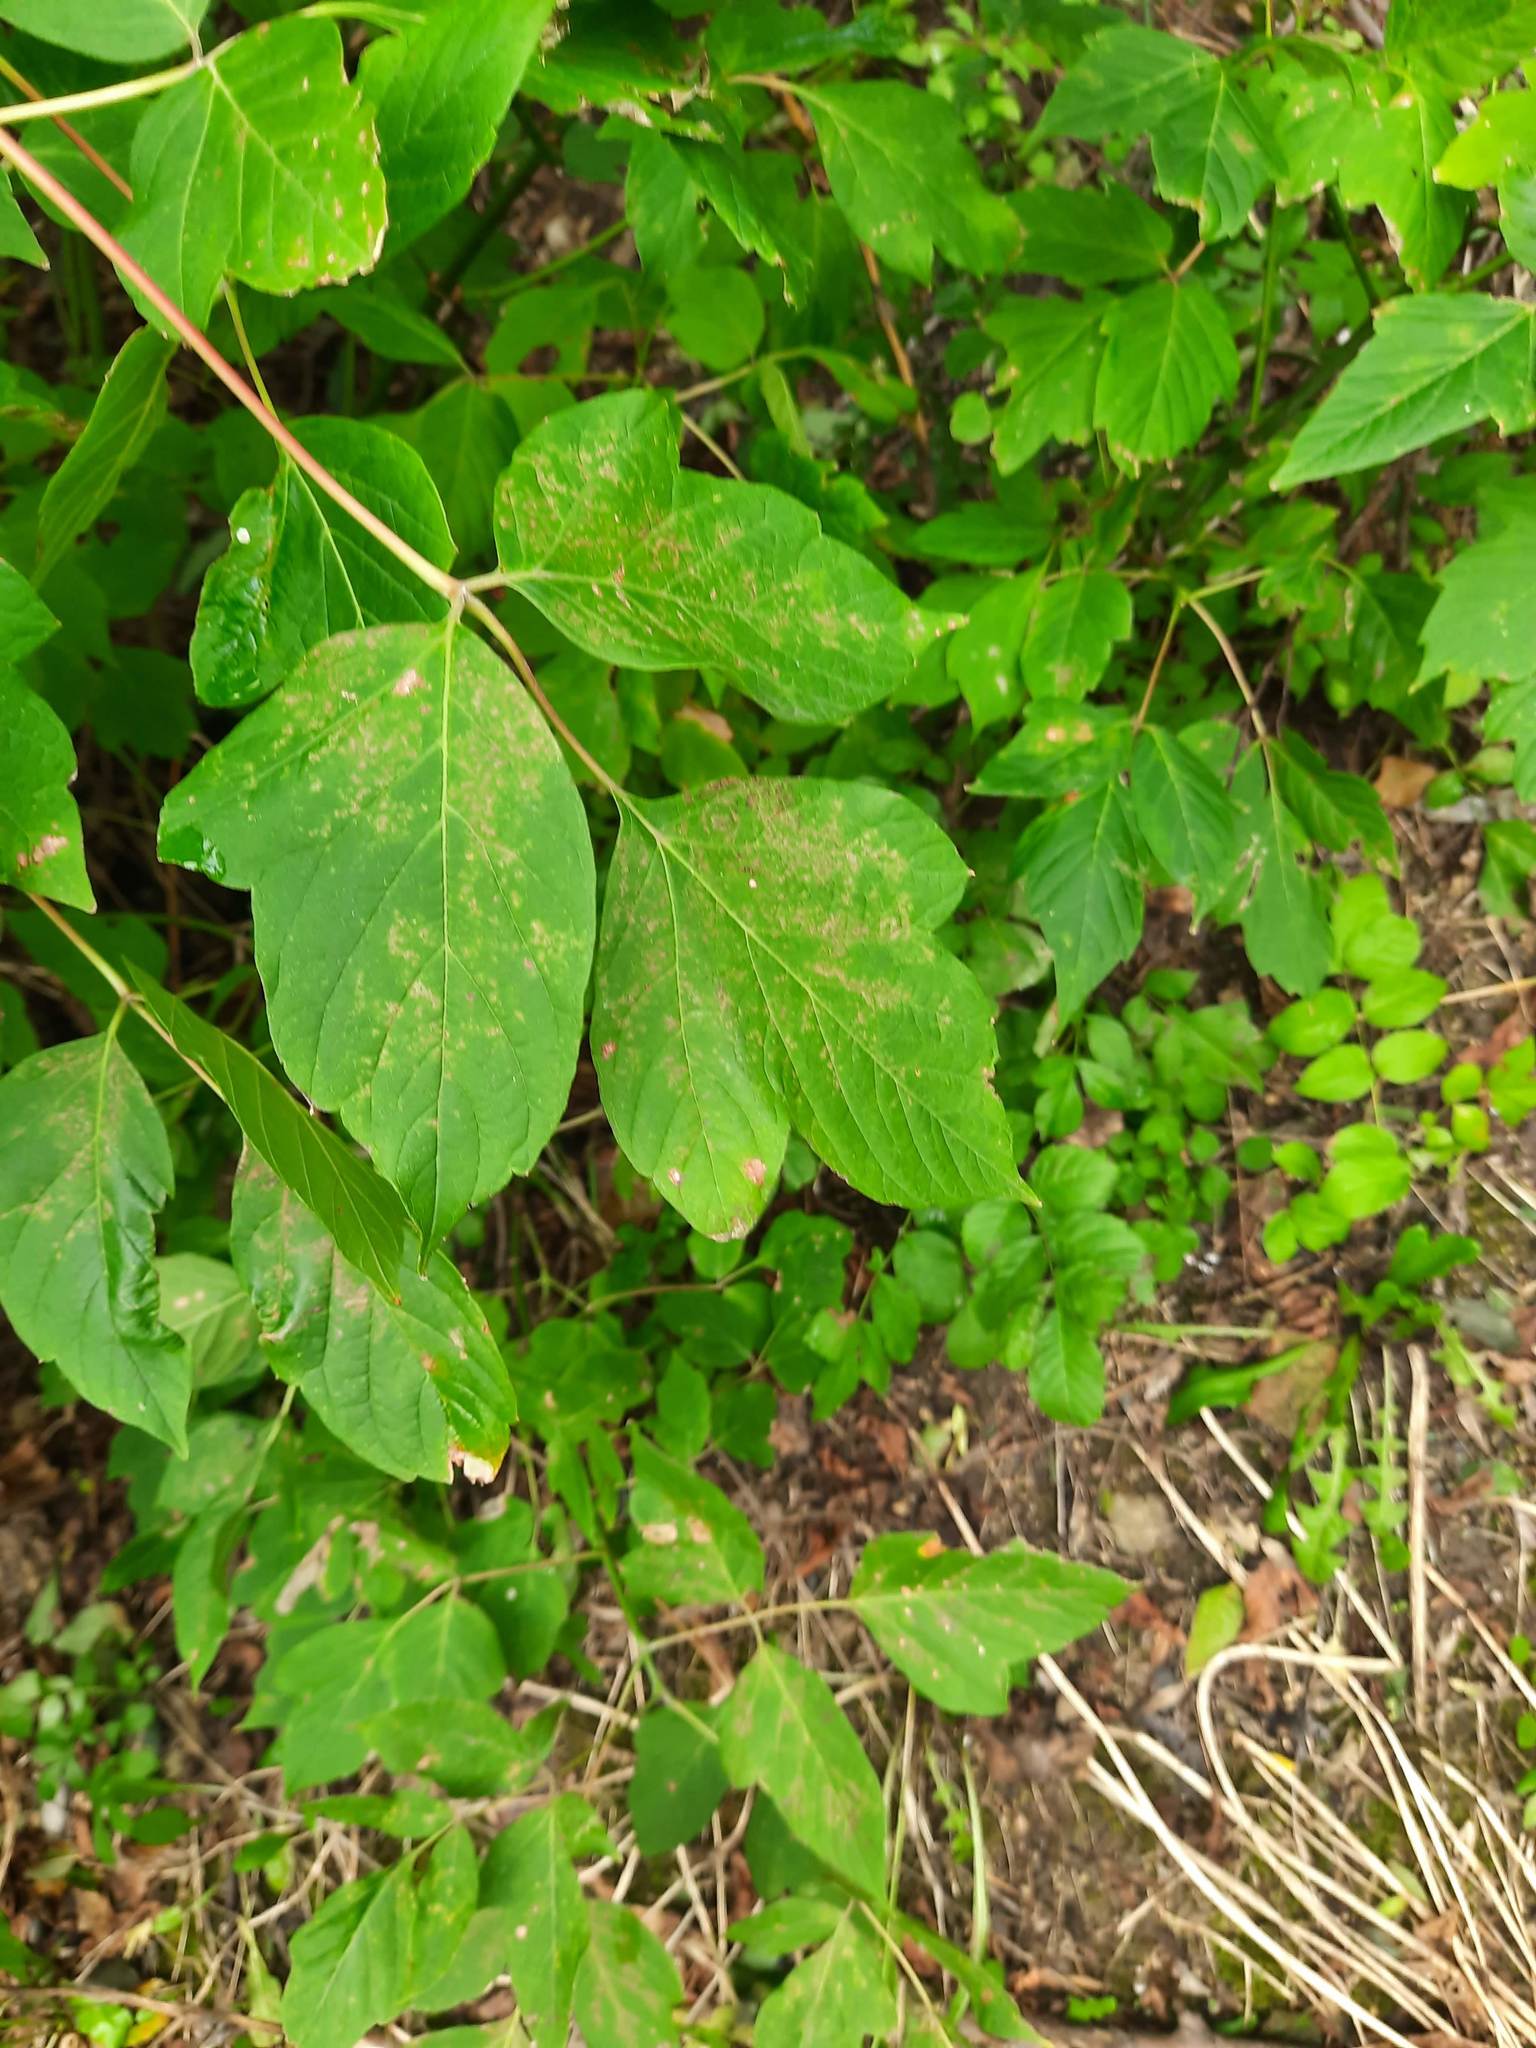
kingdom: Plantae
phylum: Tracheophyta
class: Magnoliopsida
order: Sapindales
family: Sapindaceae
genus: Acer
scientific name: Acer negundo
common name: Ashleaf maple
